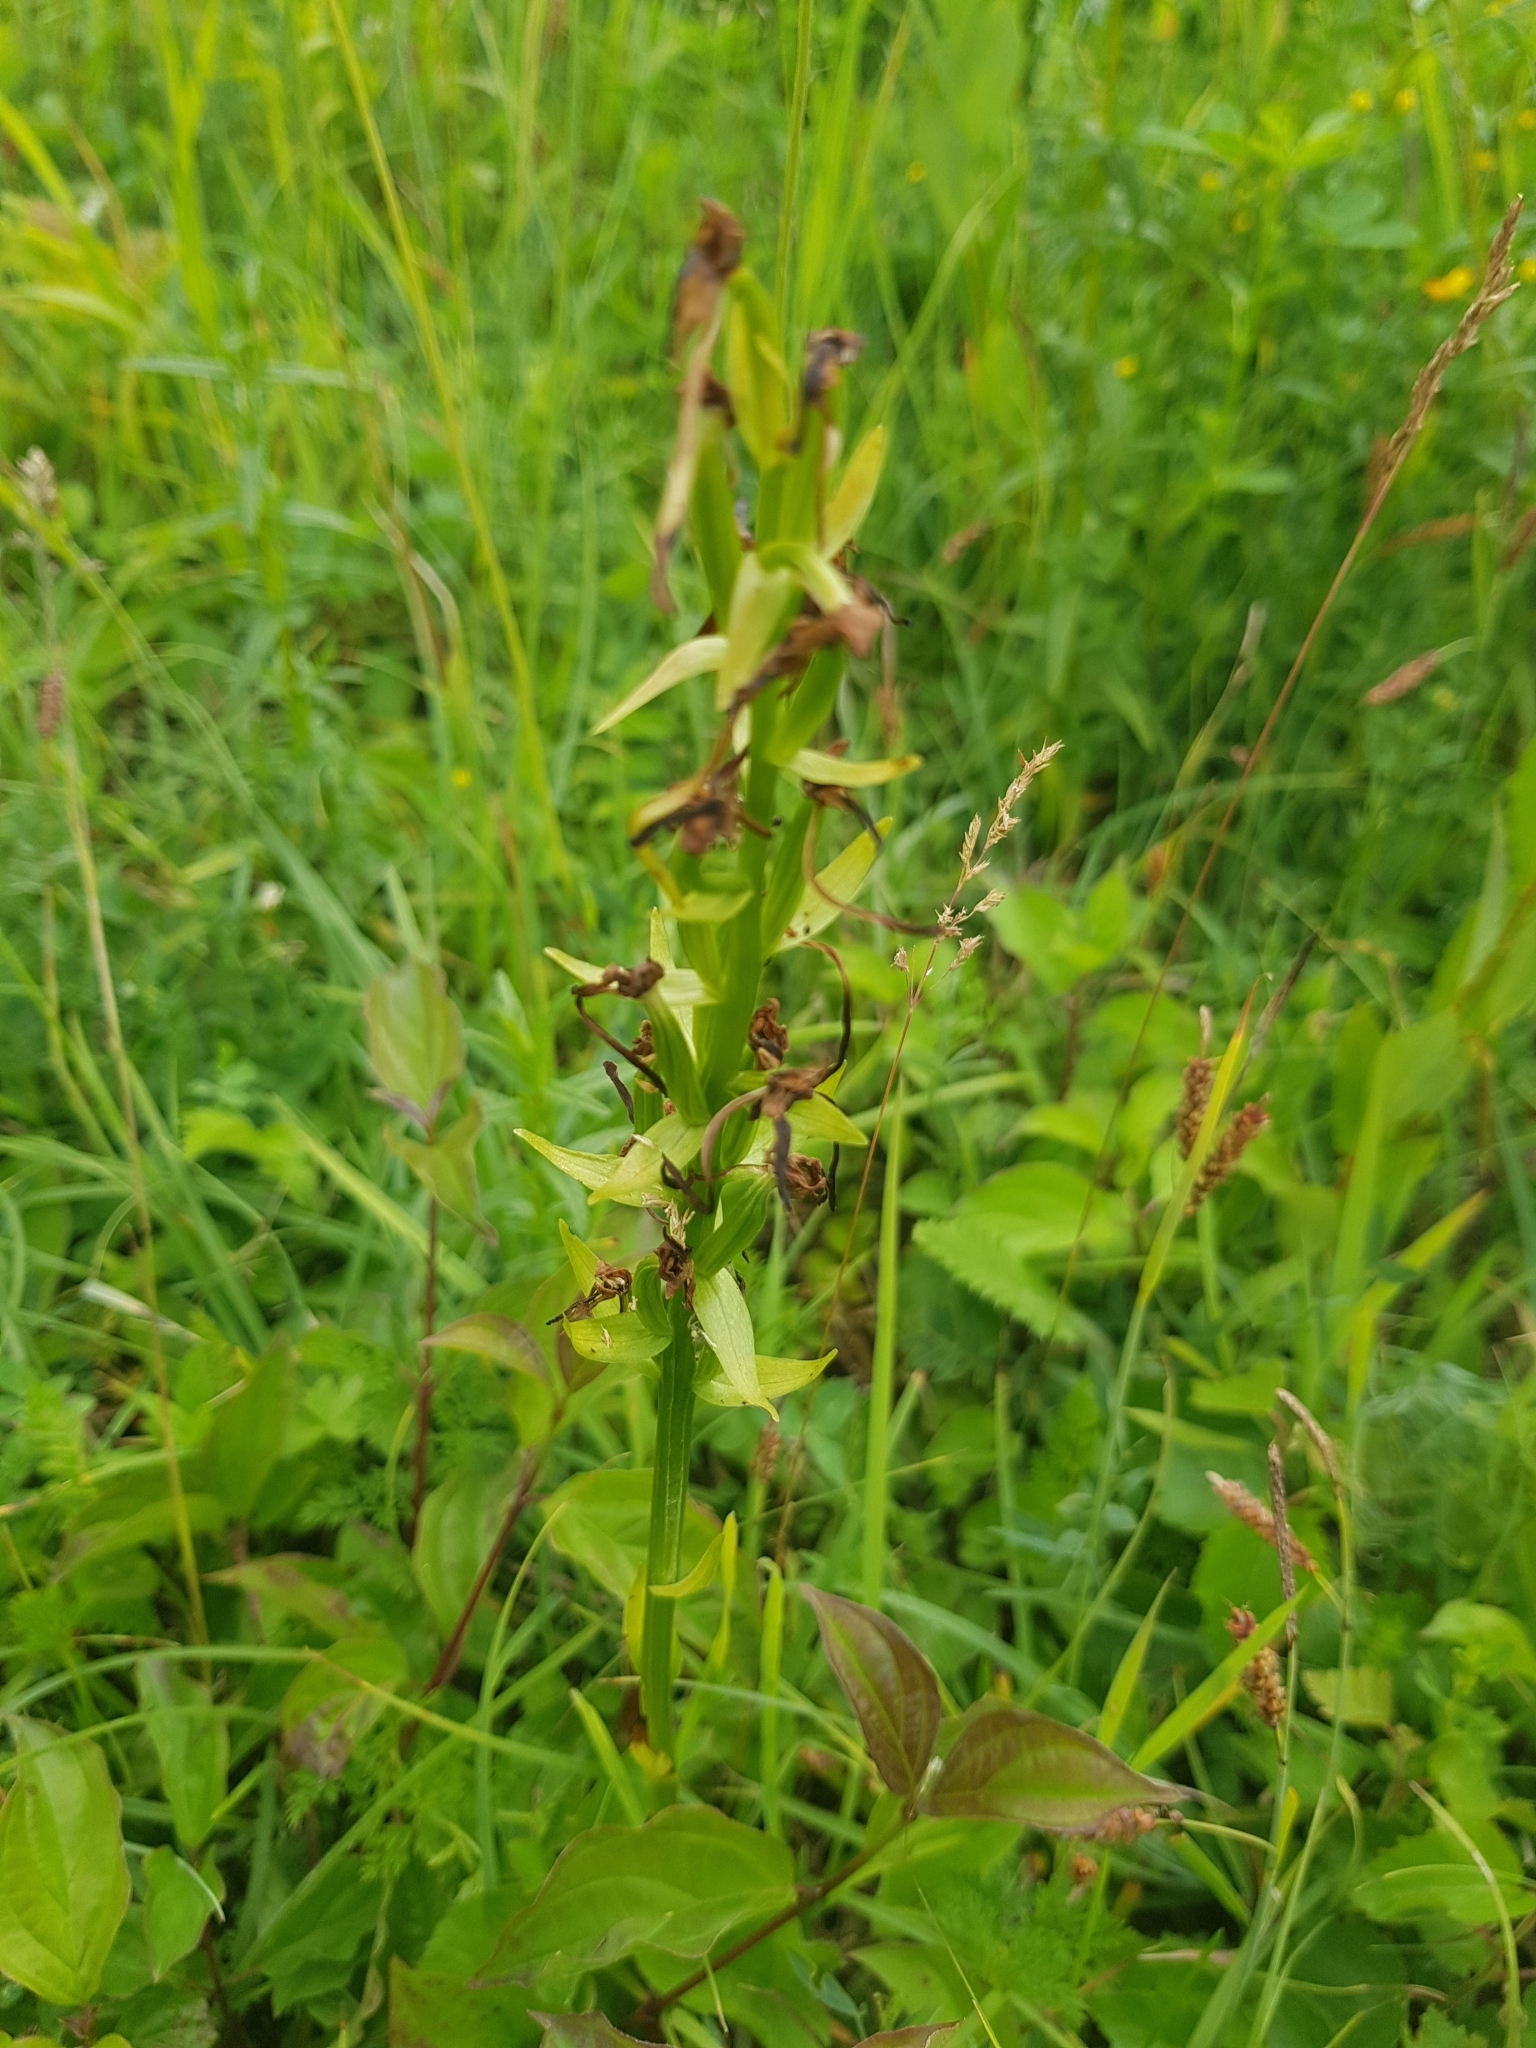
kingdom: Plantae
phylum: Tracheophyta
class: Liliopsida
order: Asparagales
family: Orchidaceae
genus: Platanthera
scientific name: Platanthera bifolia
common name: Lesser butterfly-orchid
